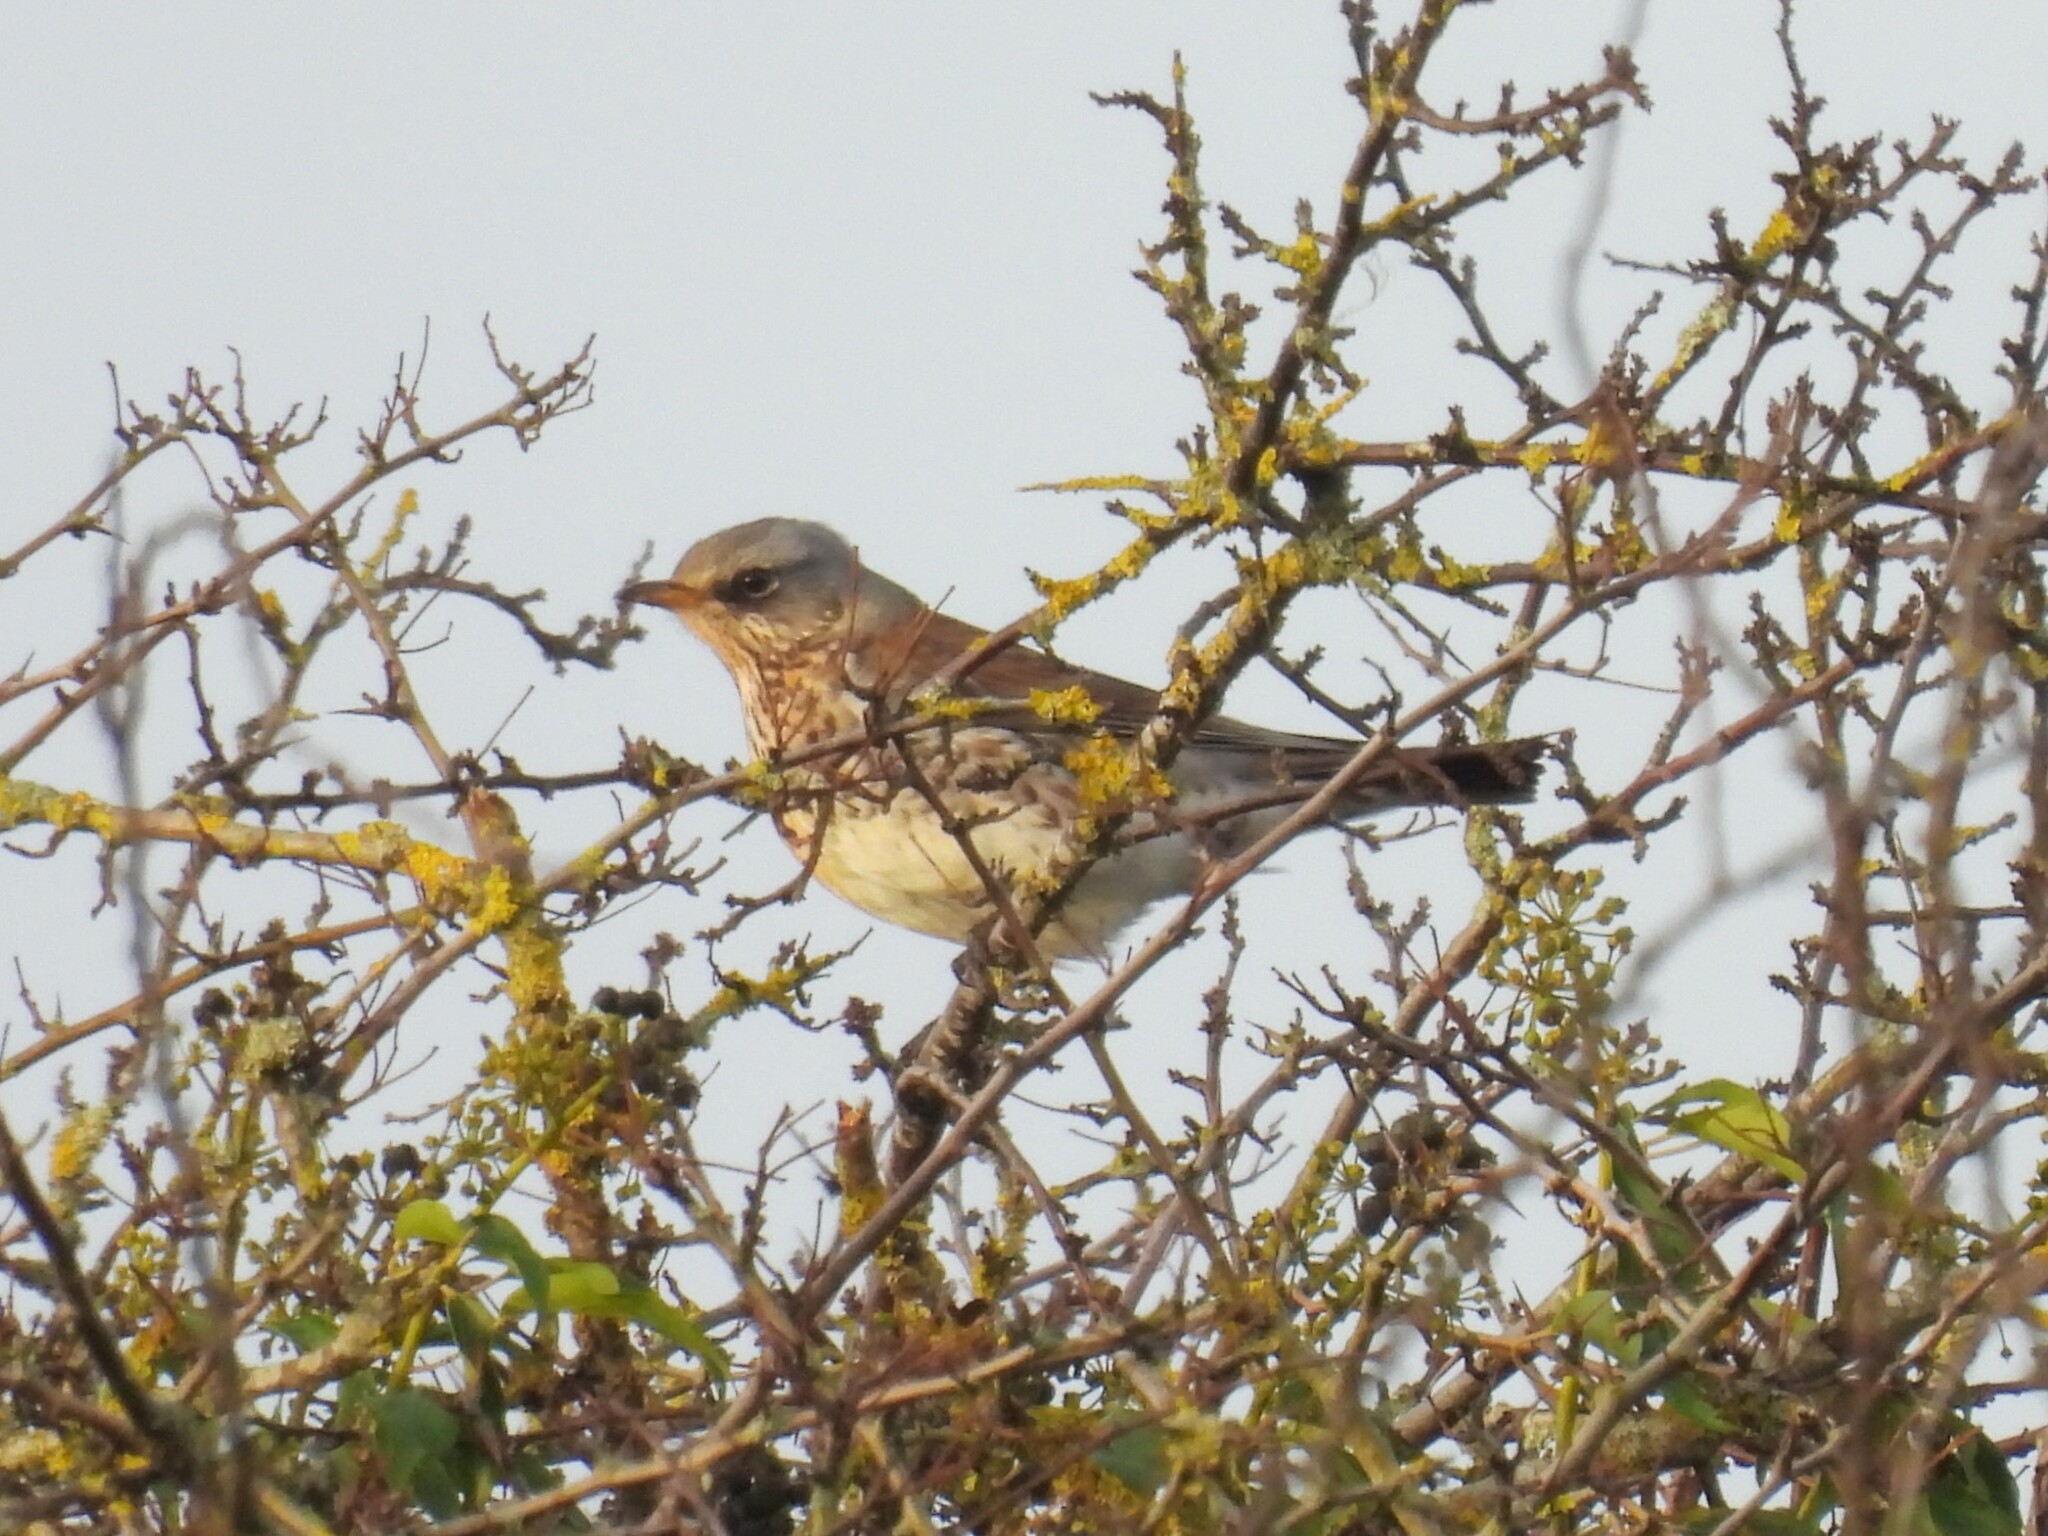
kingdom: Animalia
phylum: Chordata
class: Aves
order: Passeriformes
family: Turdidae
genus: Turdus
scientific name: Turdus pilaris
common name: Fieldfare
